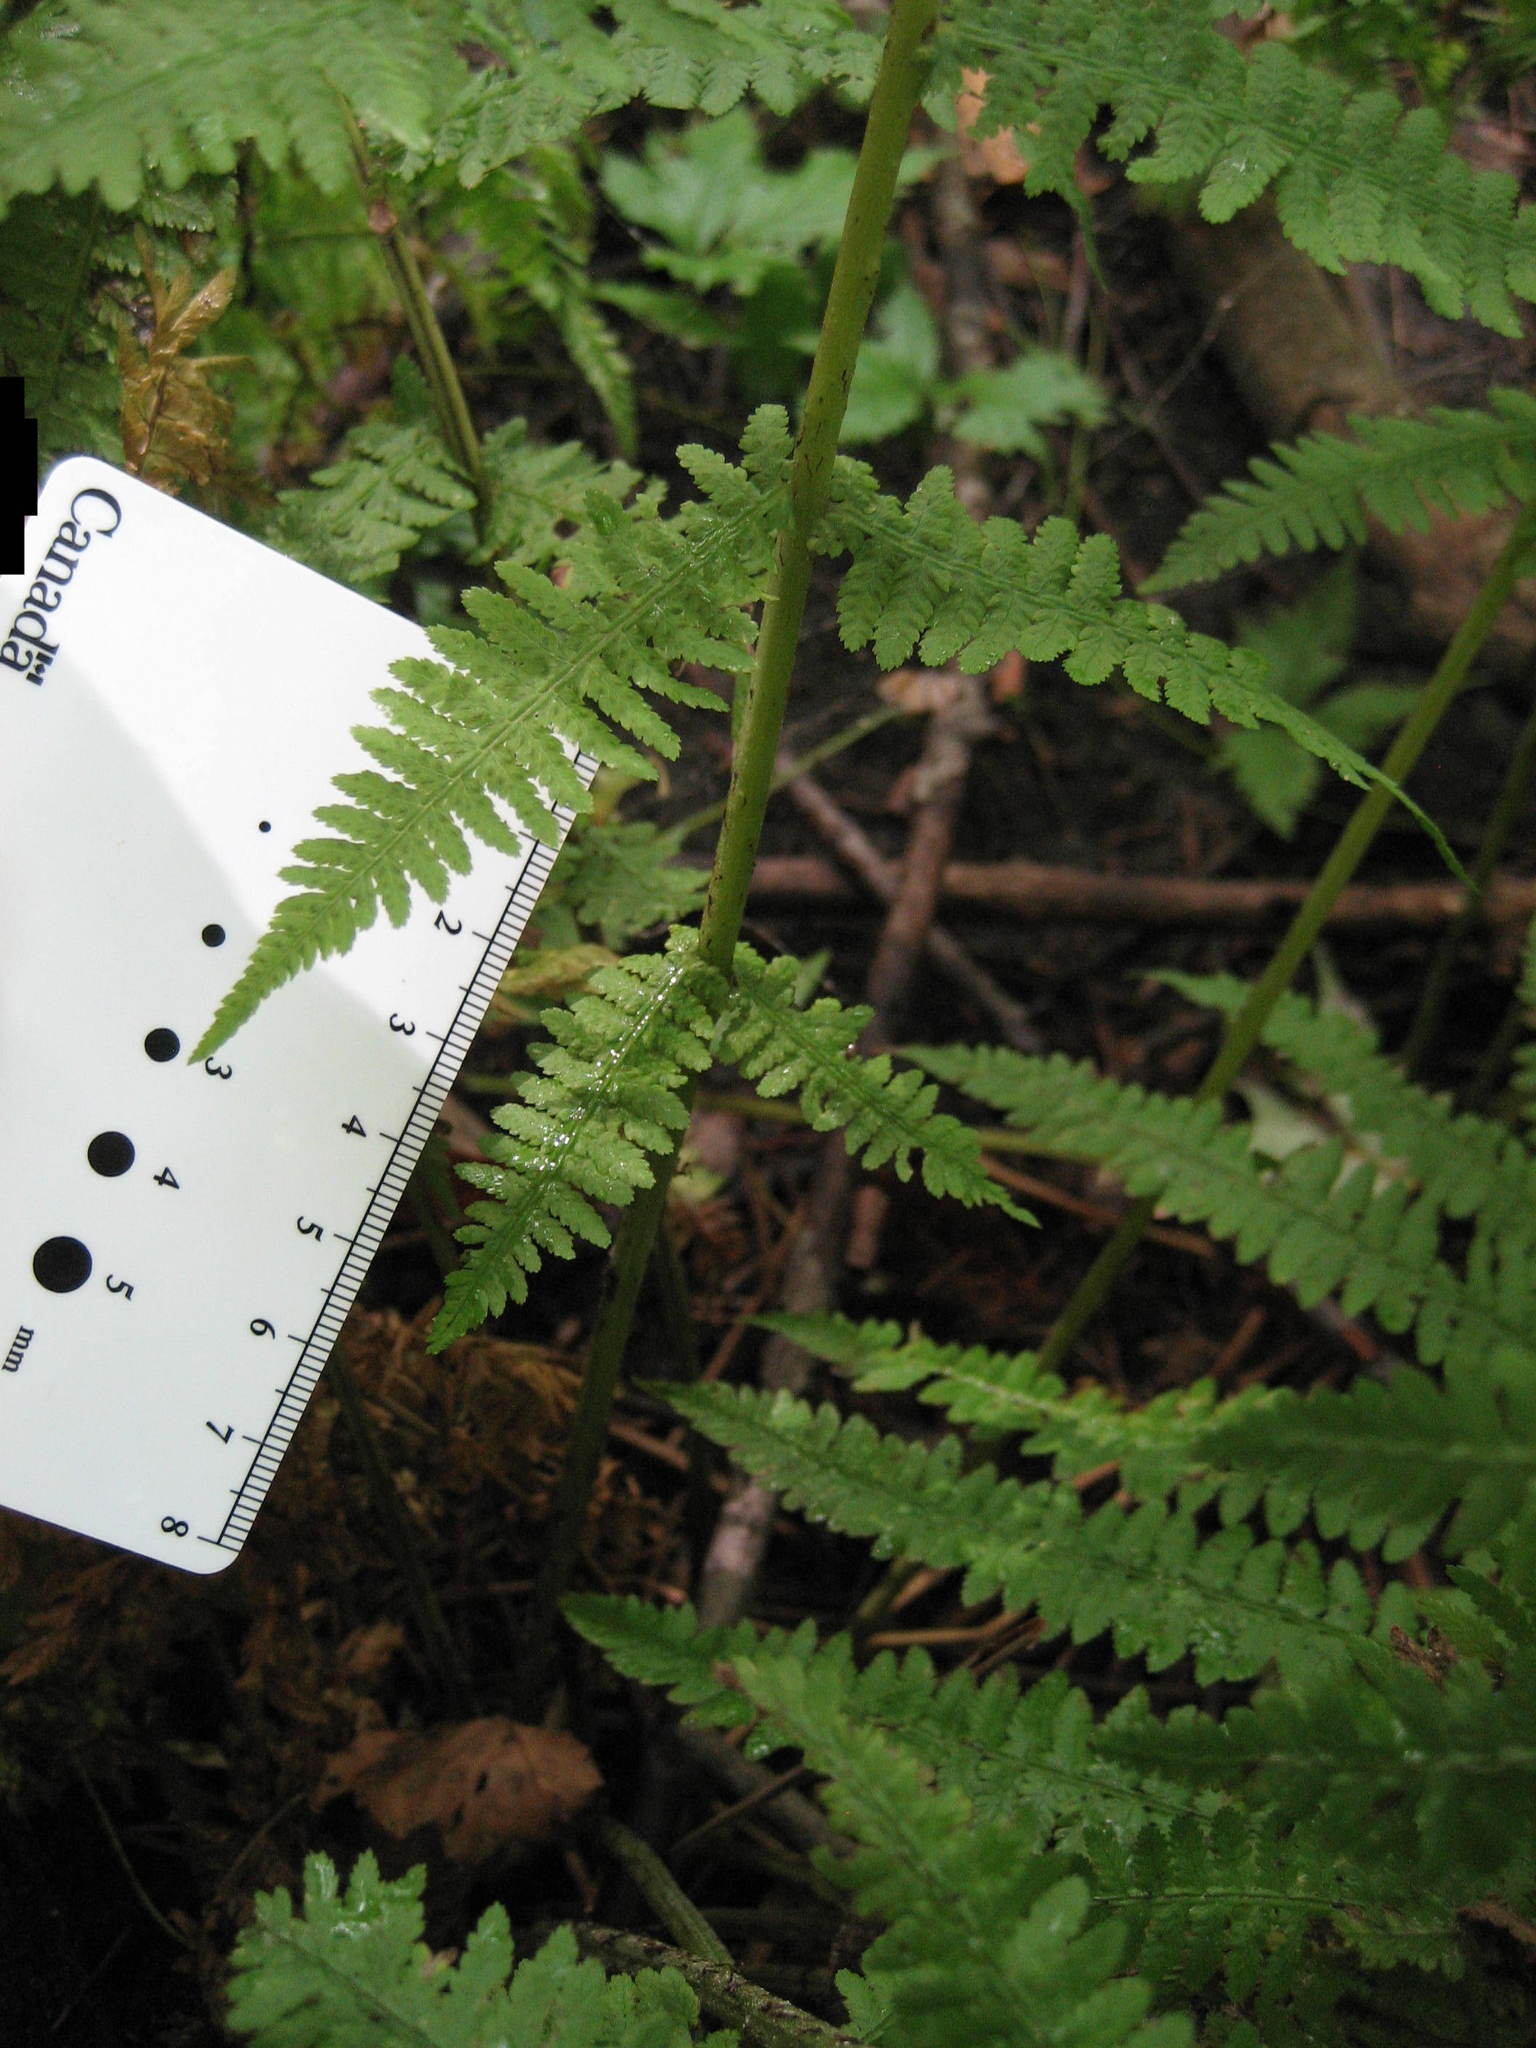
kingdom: Plantae
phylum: Tracheophyta
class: Polypodiopsida
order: Polypodiales
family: Athyriaceae
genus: Athyrium
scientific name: Athyrium angustum
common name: Northern lady fern
